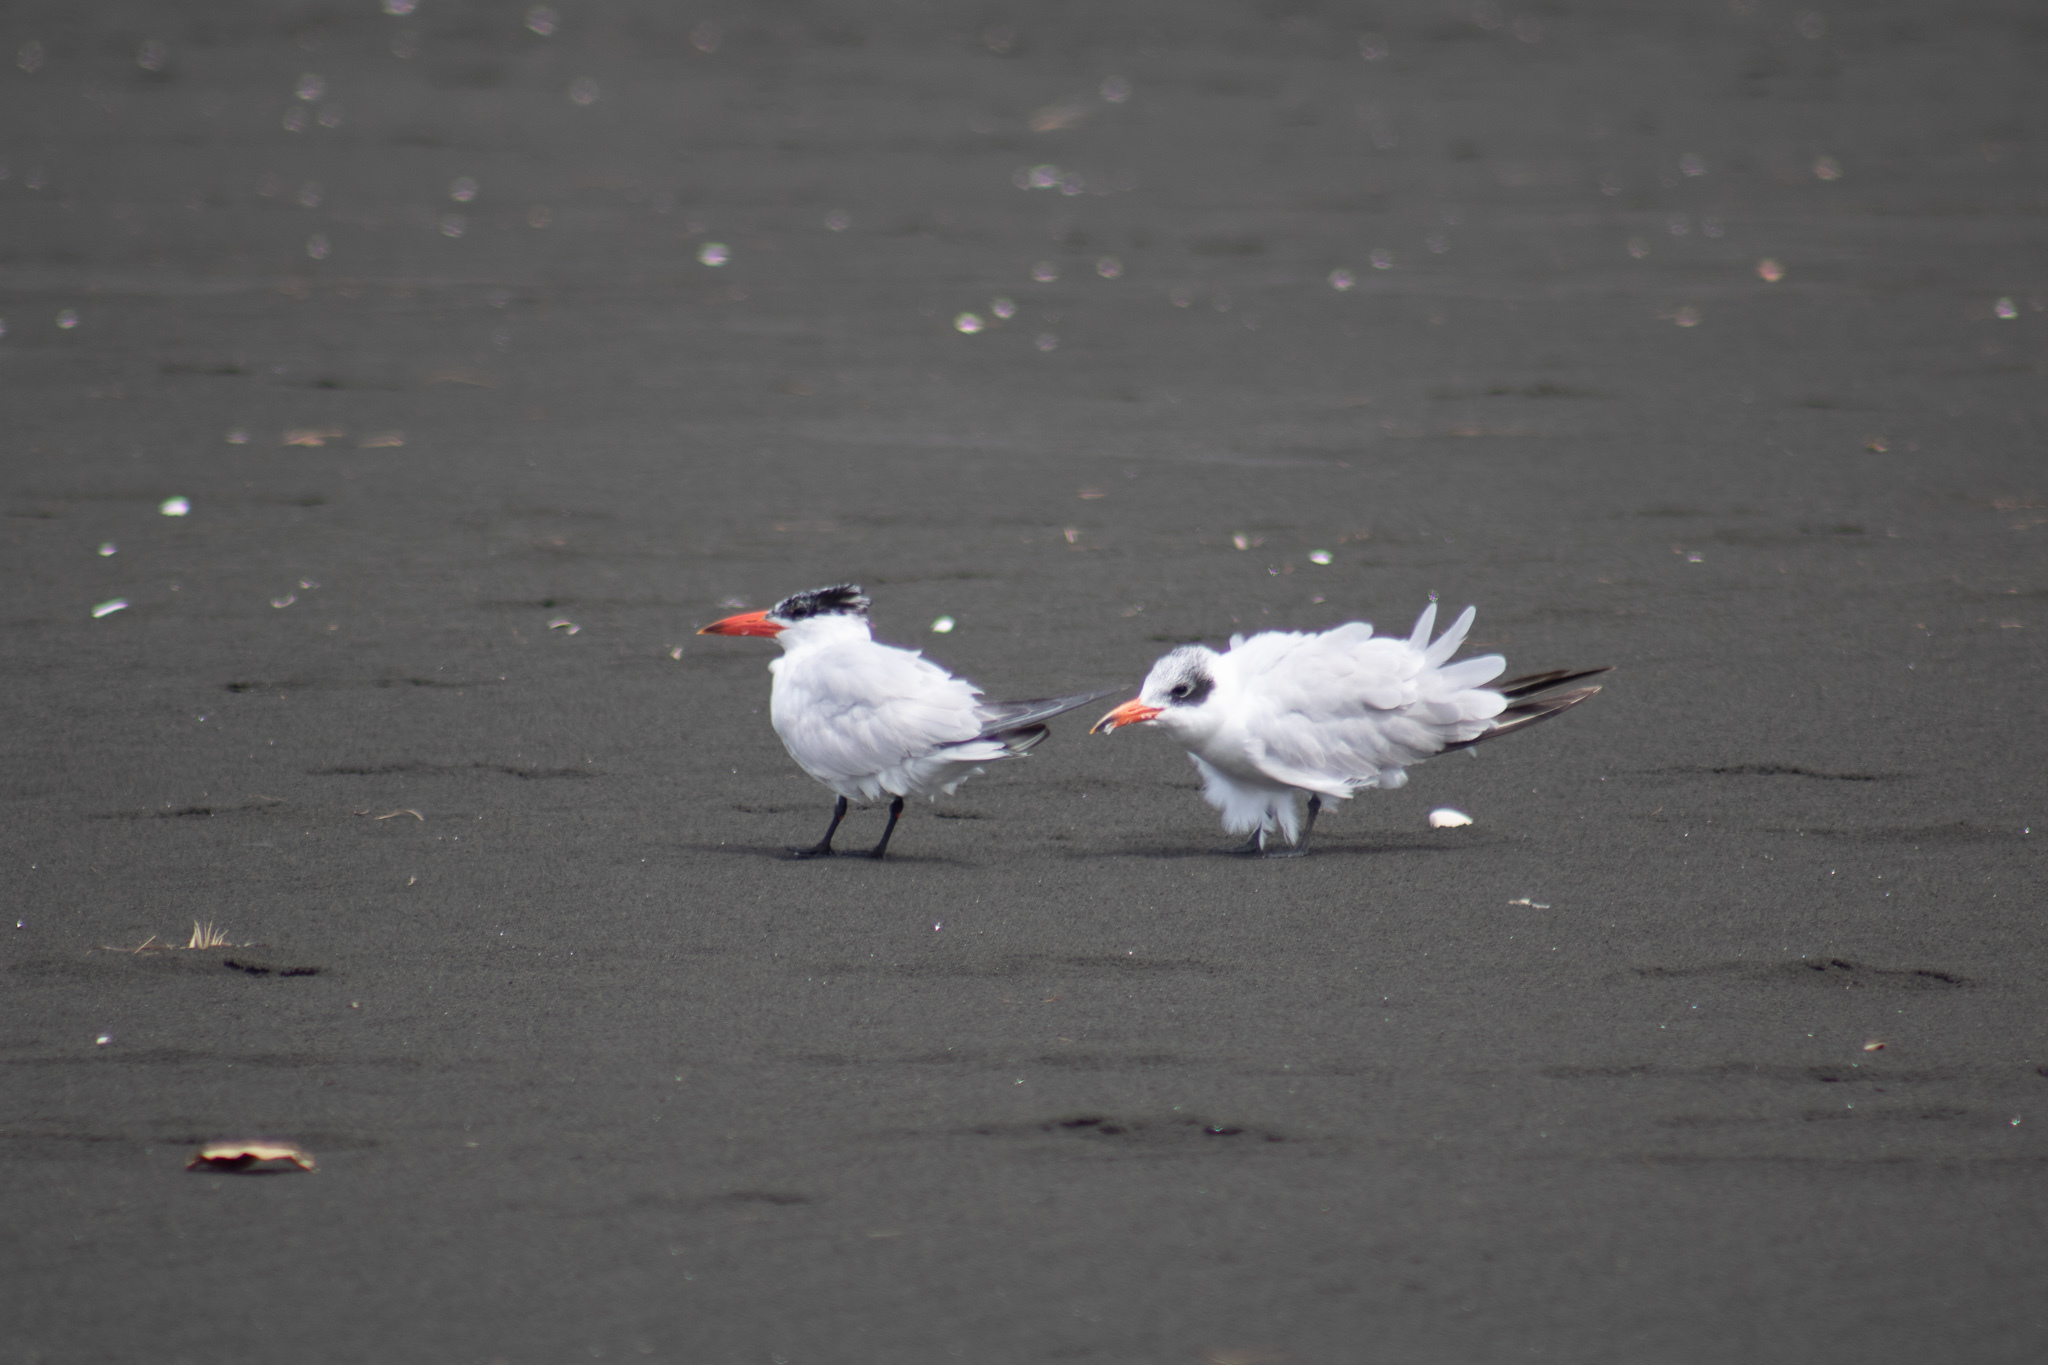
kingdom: Animalia
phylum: Chordata
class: Aves
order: Charadriiformes
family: Laridae
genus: Hydroprogne
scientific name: Hydroprogne caspia
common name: Caspian tern
